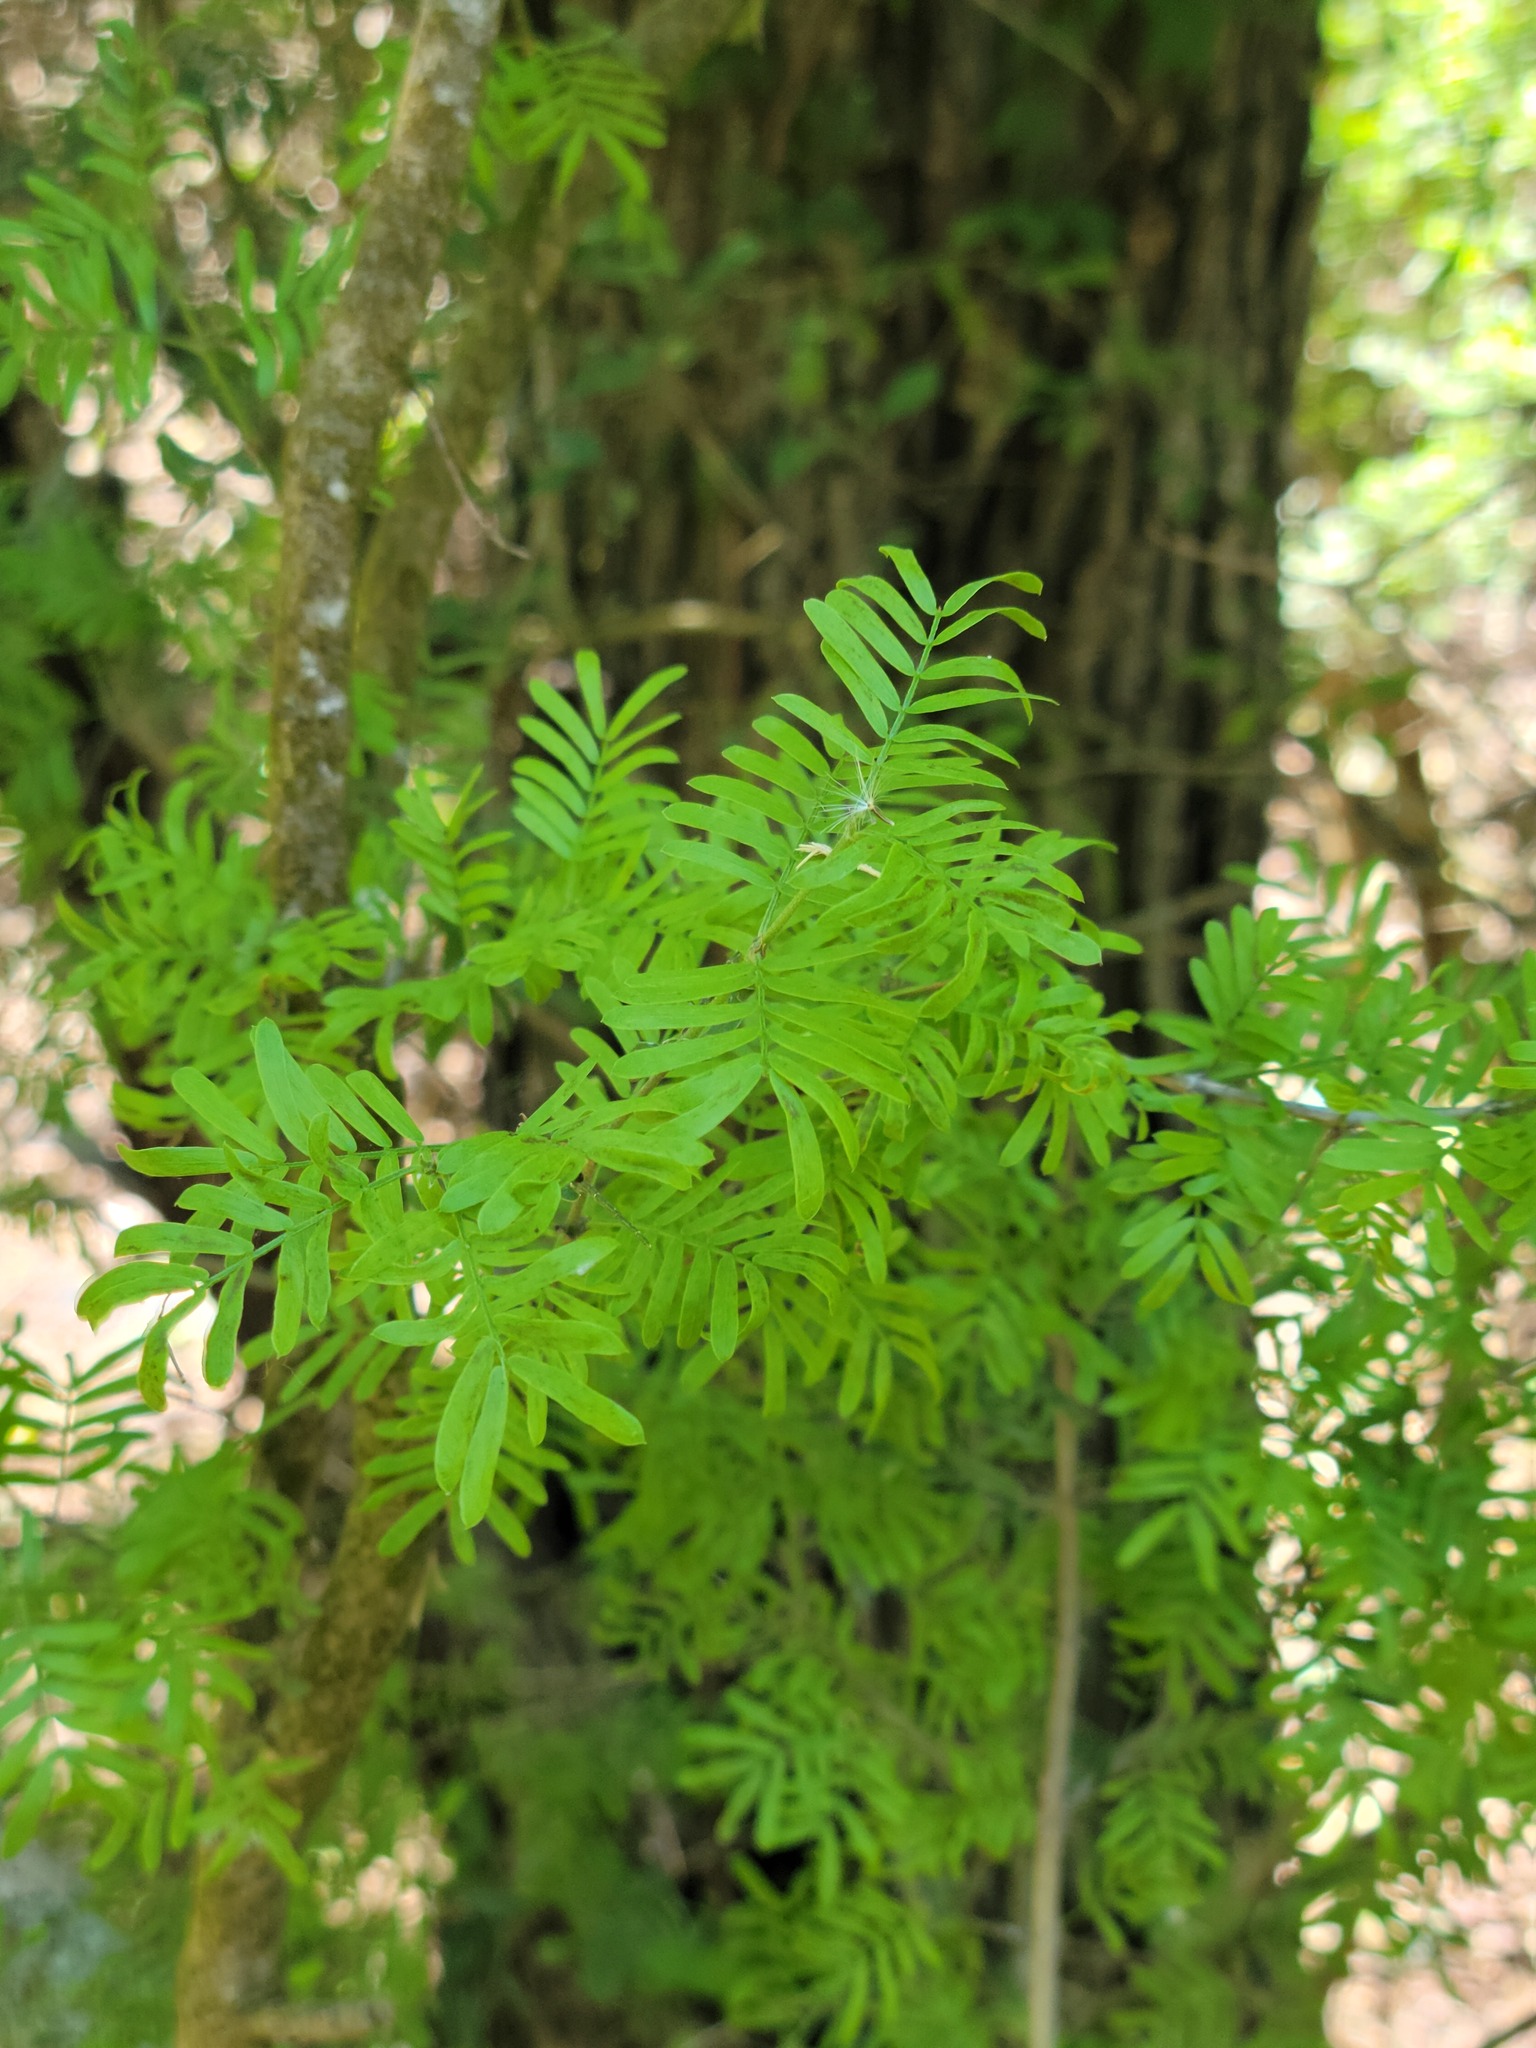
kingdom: Plantae
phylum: Tracheophyta
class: Magnoliopsida
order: Zygophyllales
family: Zygophyllaceae
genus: Porlieria
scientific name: Porlieria angustifolia
